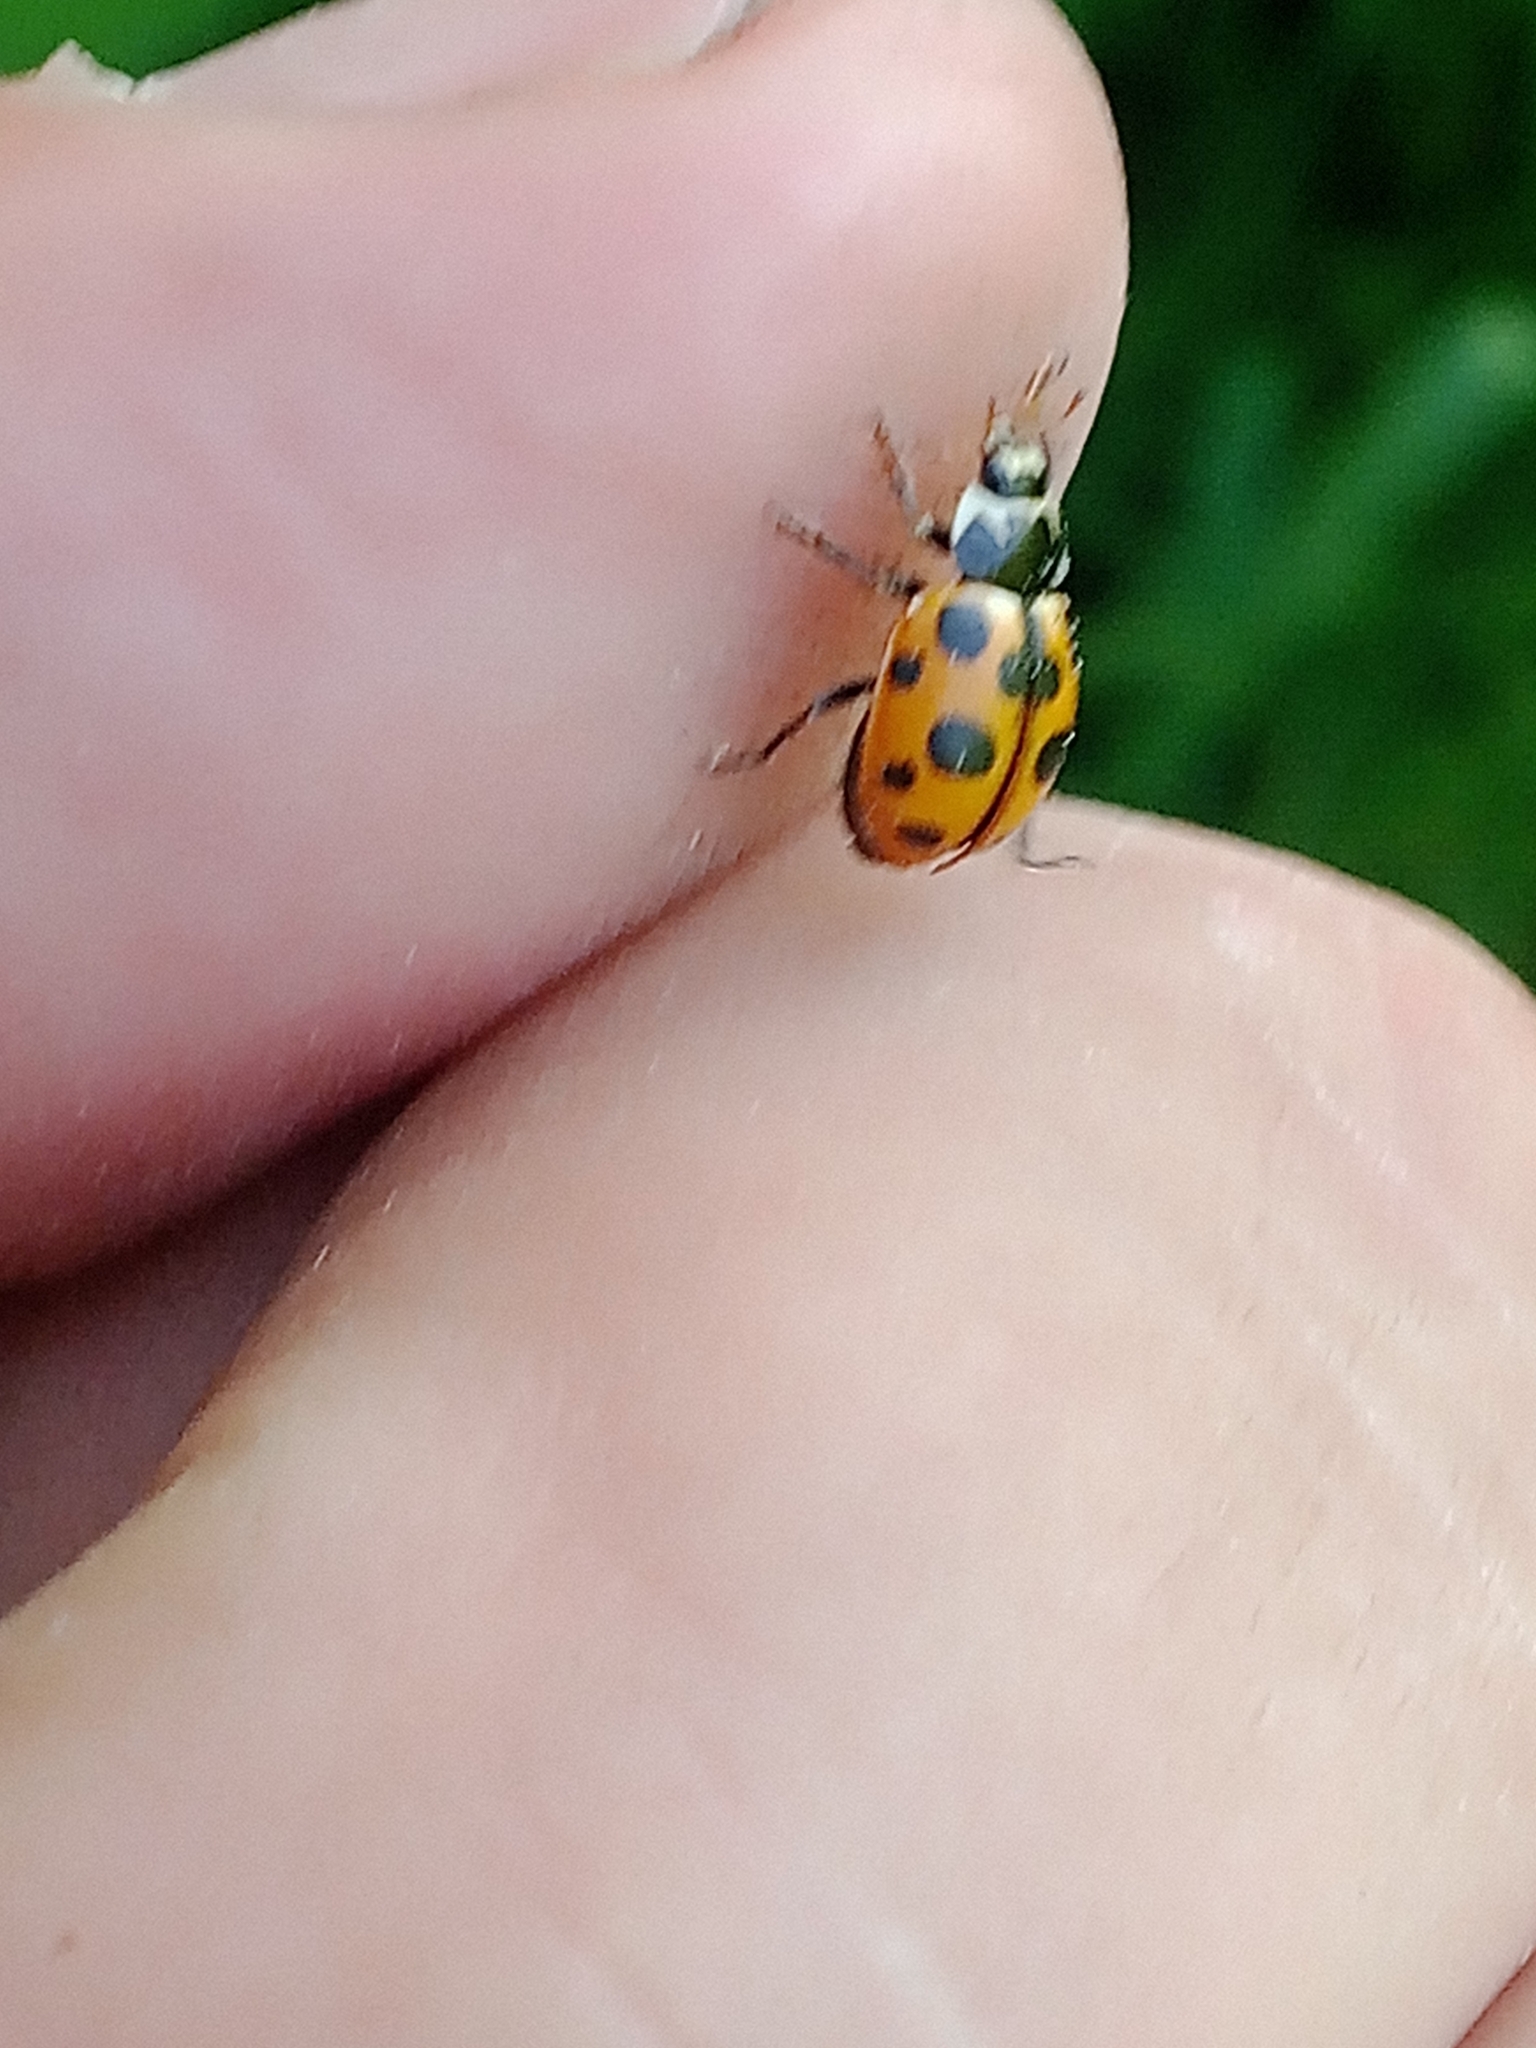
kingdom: Animalia
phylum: Arthropoda
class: Insecta
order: Coleoptera
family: Coccinellidae
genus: Ceratomegilla
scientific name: Ceratomegilla notata
